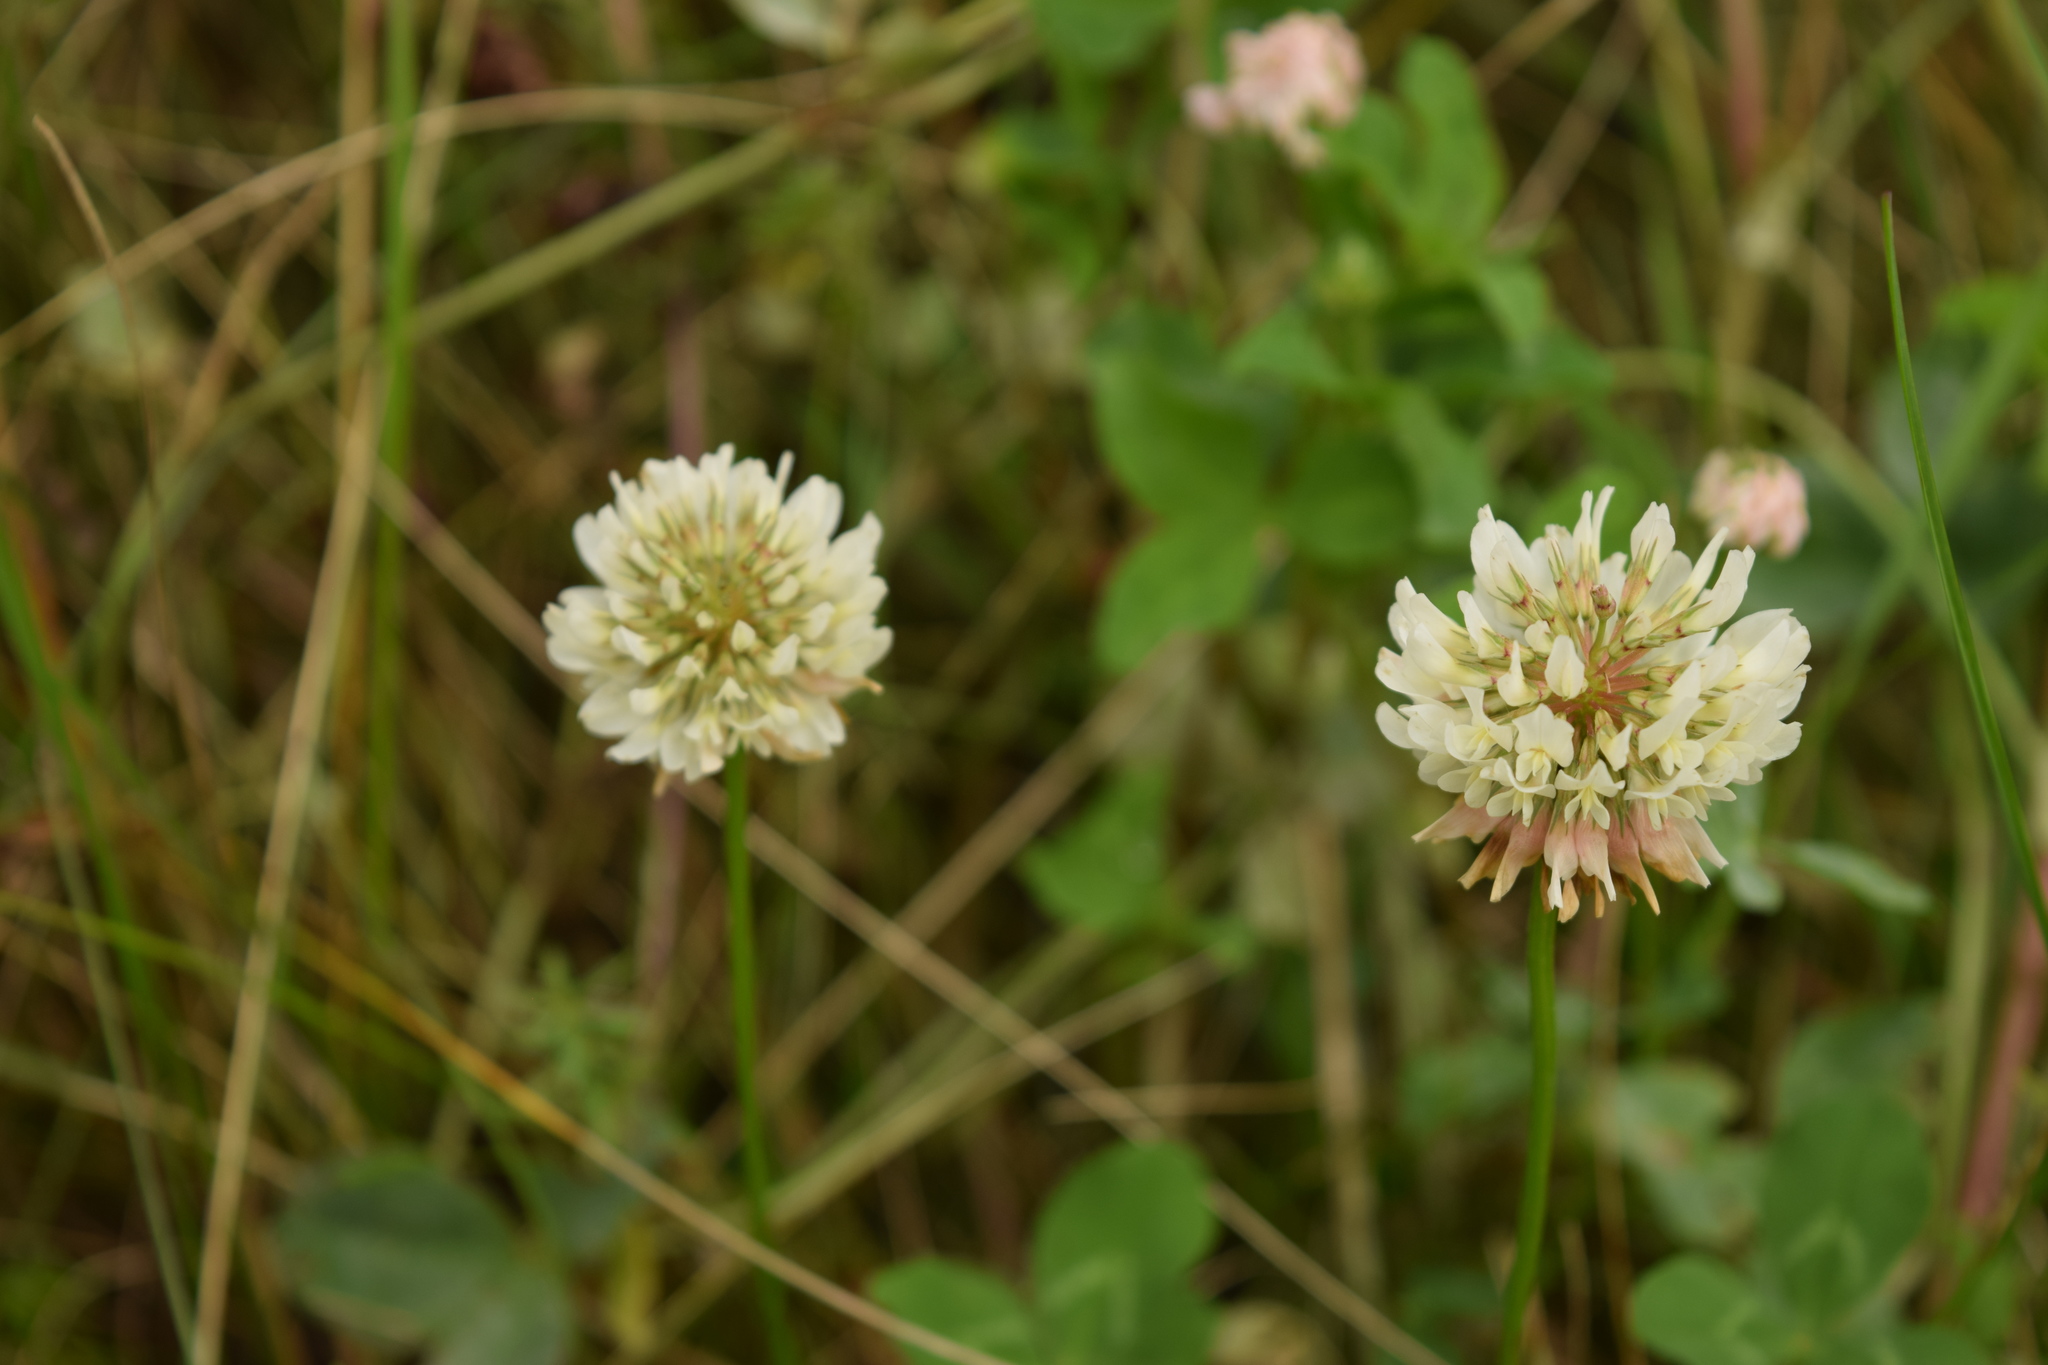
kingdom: Plantae
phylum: Tracheophyta
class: Magnoliopsida
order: Fabales
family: Fabaceae
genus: Trifolium
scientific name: Trifolium repens
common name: White clover
